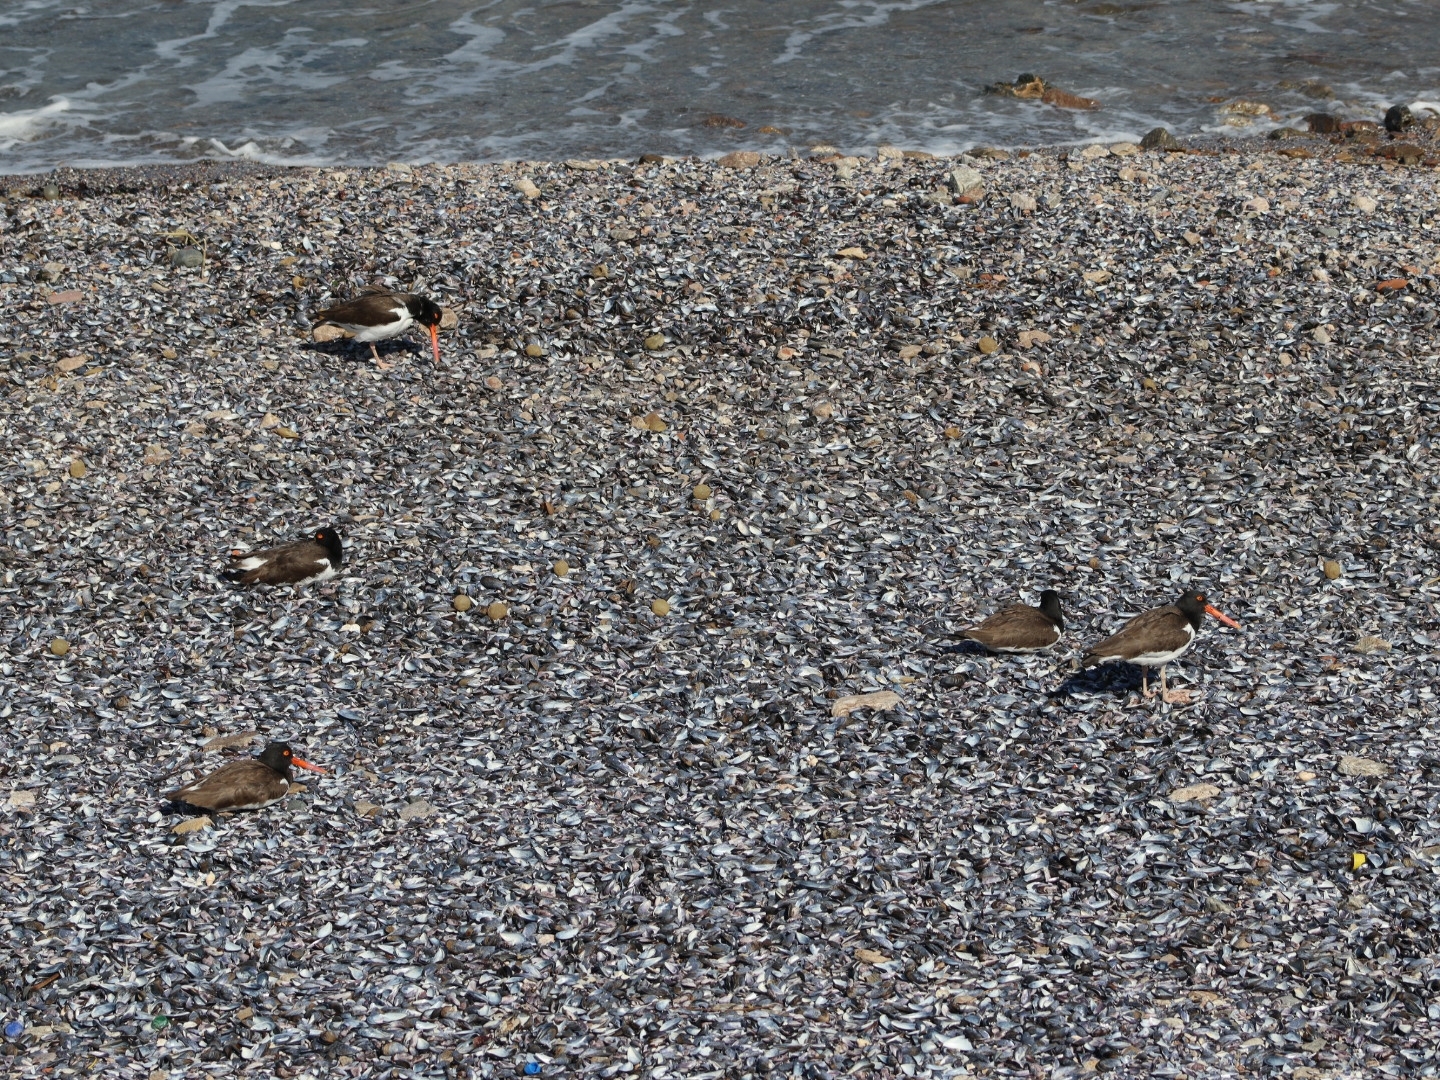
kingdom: Animalia
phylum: Chordata
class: Aves
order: Charadriiformes
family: Haematopodidae
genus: Haematopus
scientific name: Haematopus palliatus
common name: American oystercatcher
